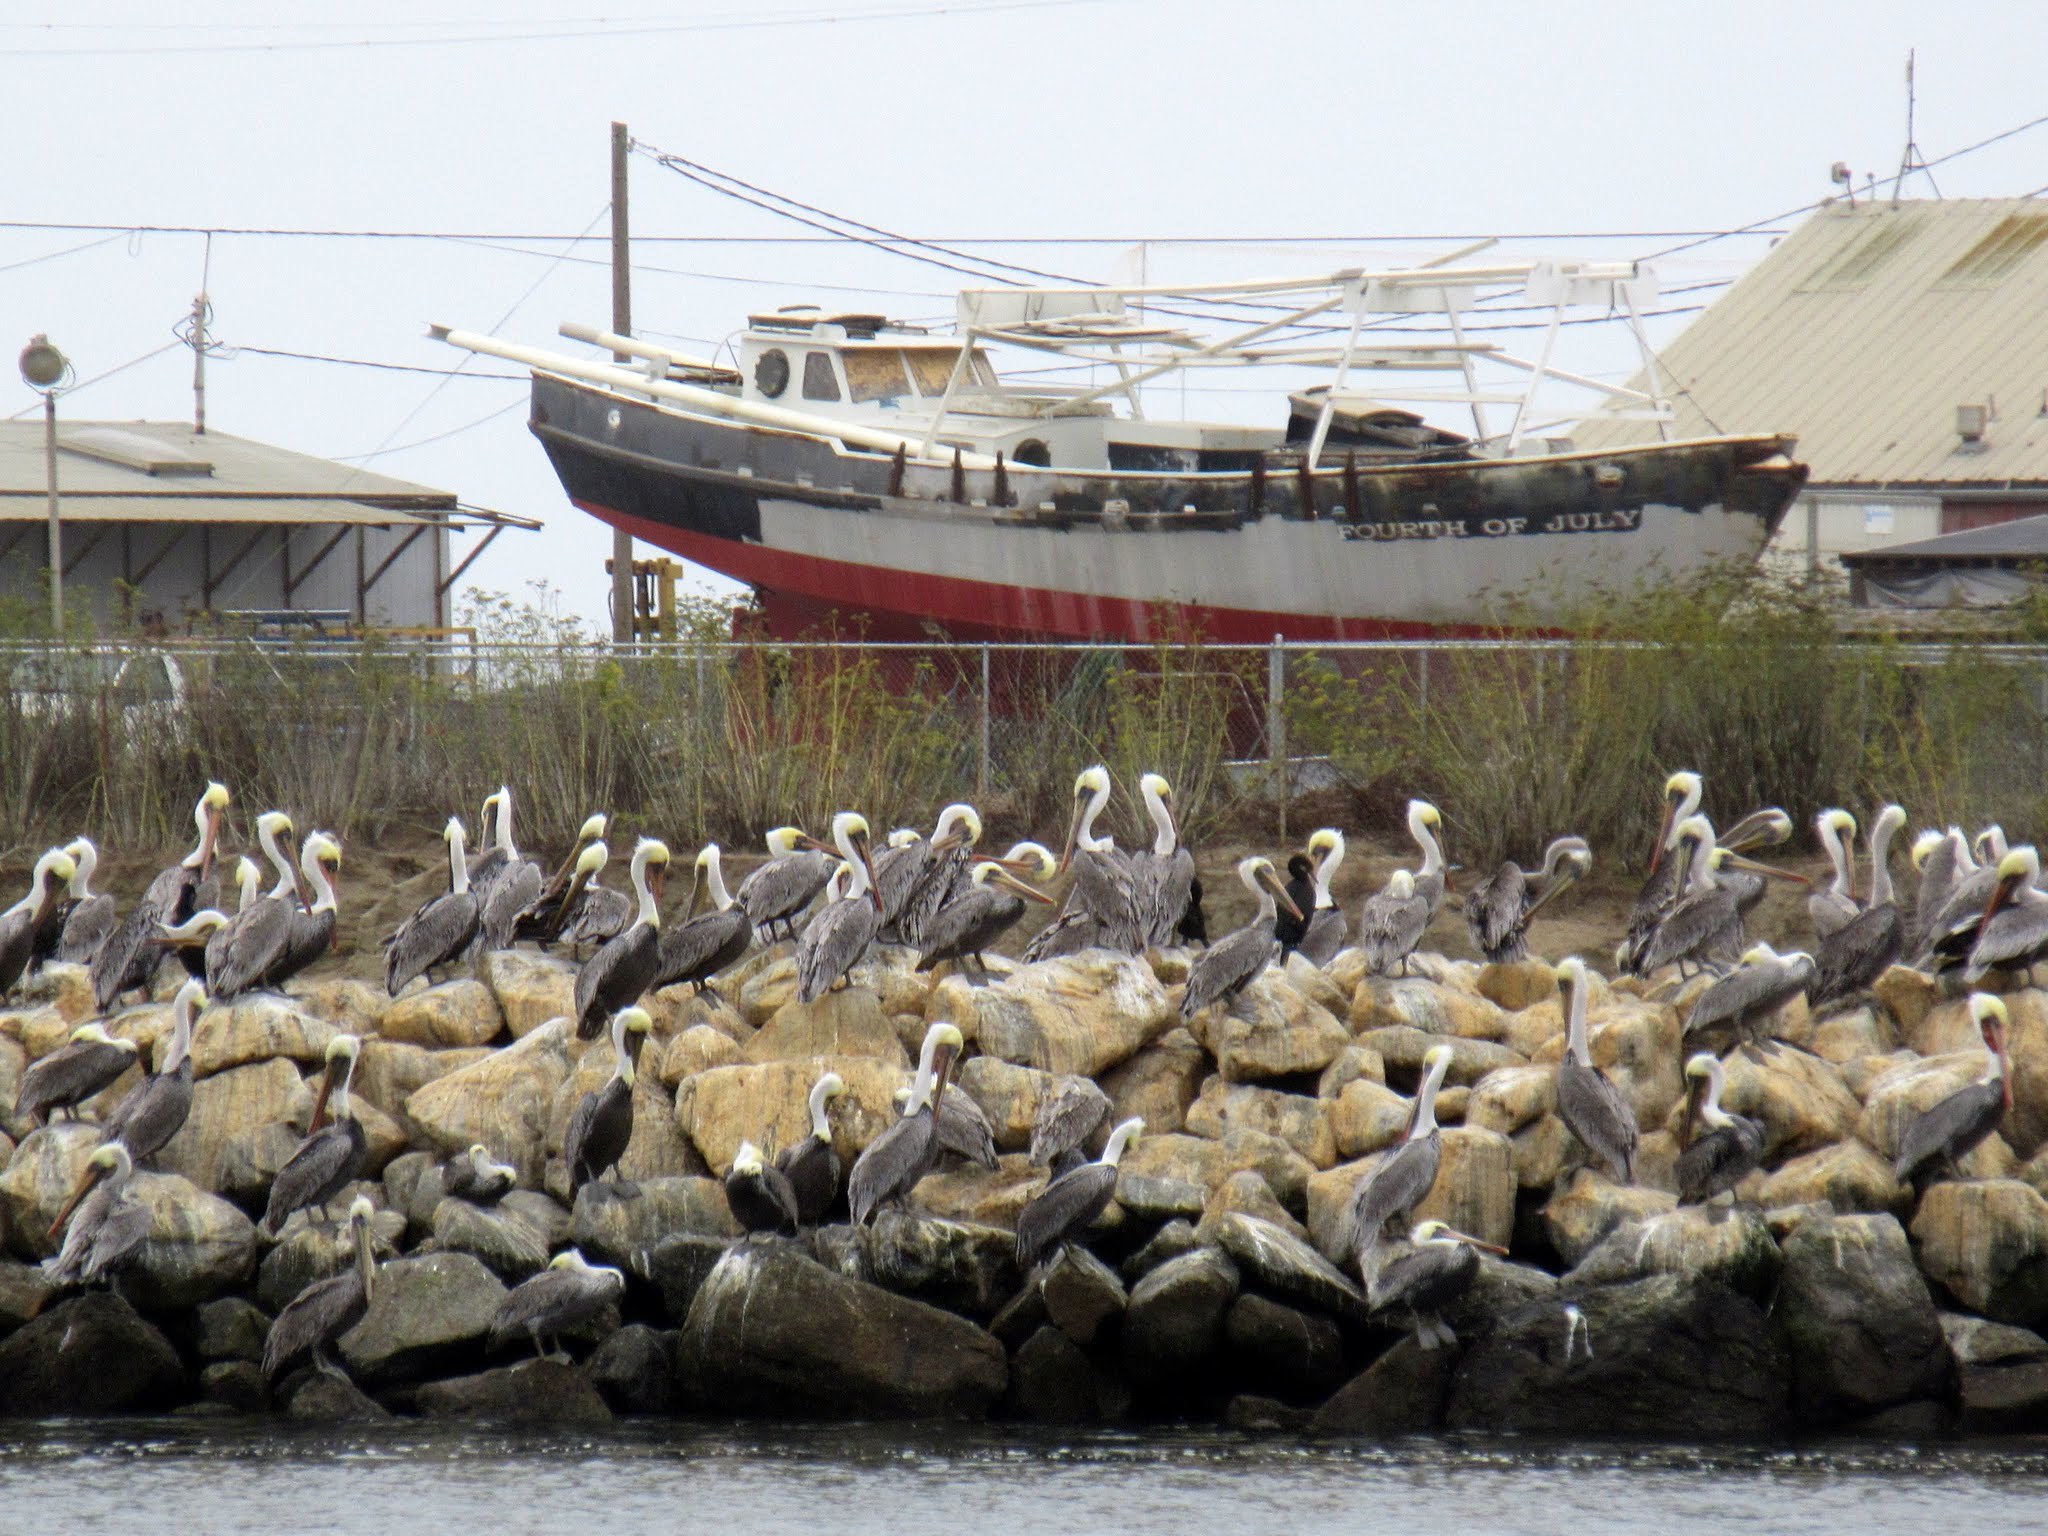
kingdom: Animalia
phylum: Chordata
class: Aves
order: Pelecaniformes
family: Pelecanidae
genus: Pelecanus
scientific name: Pelecanus occidentalis
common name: Brown pelican
